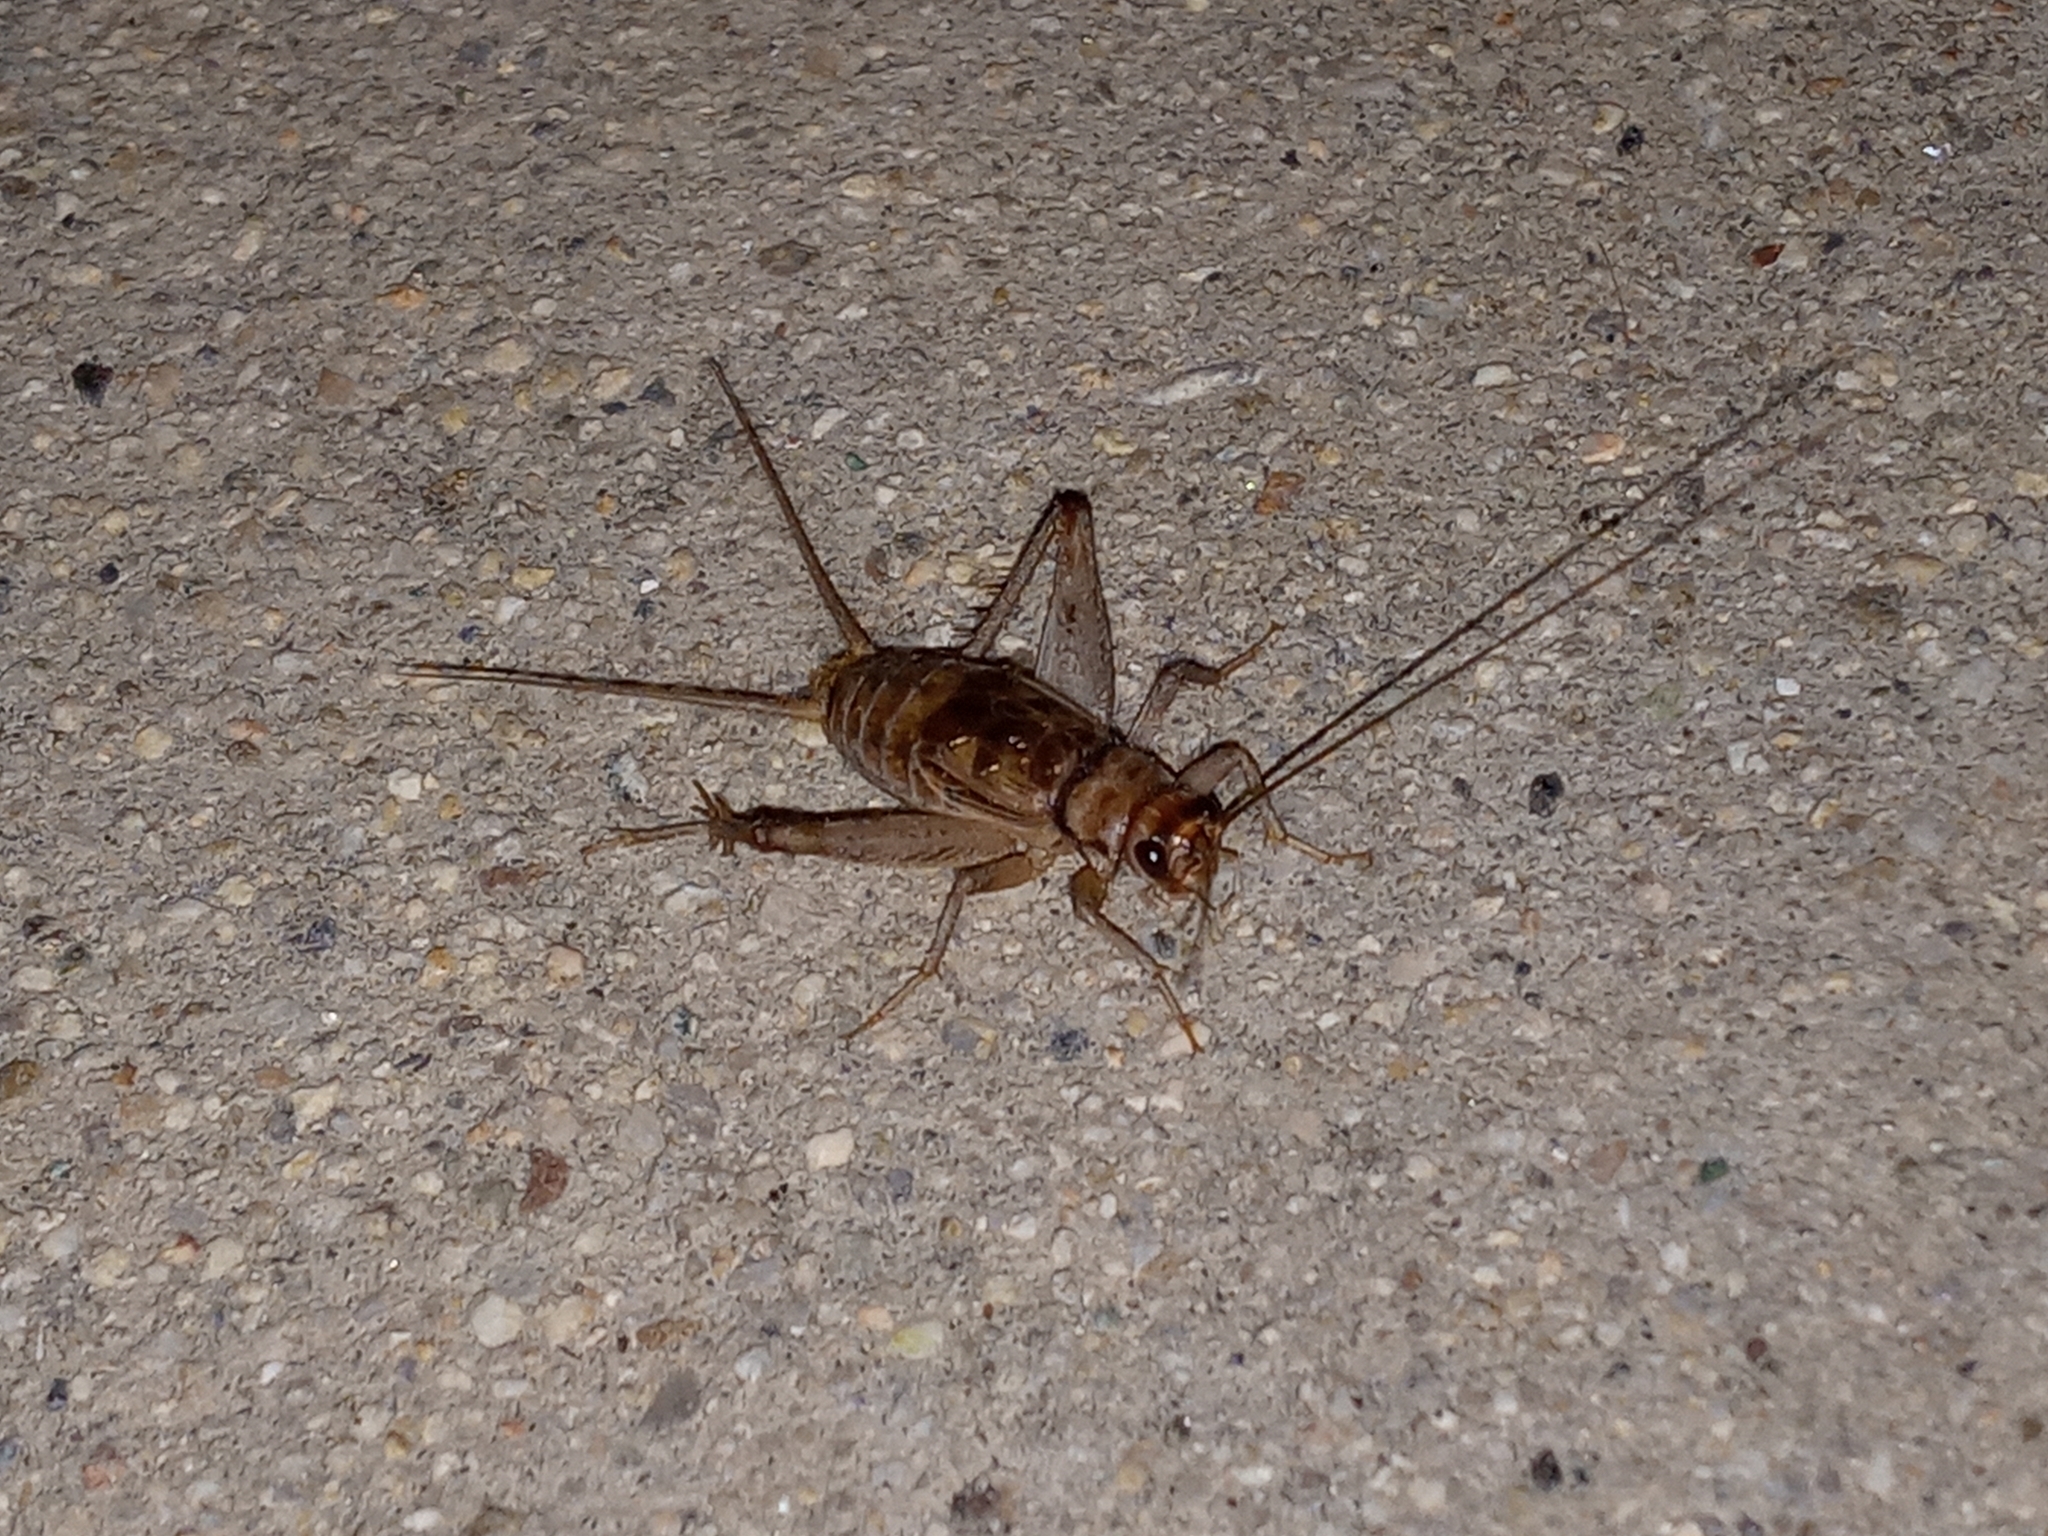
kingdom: Animalia
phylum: Arthropoda
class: Insecta
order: Orthoptera
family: Gryllidae
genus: Gryllodes
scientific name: Gryllodes sigillatus
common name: Tropical house cricket
